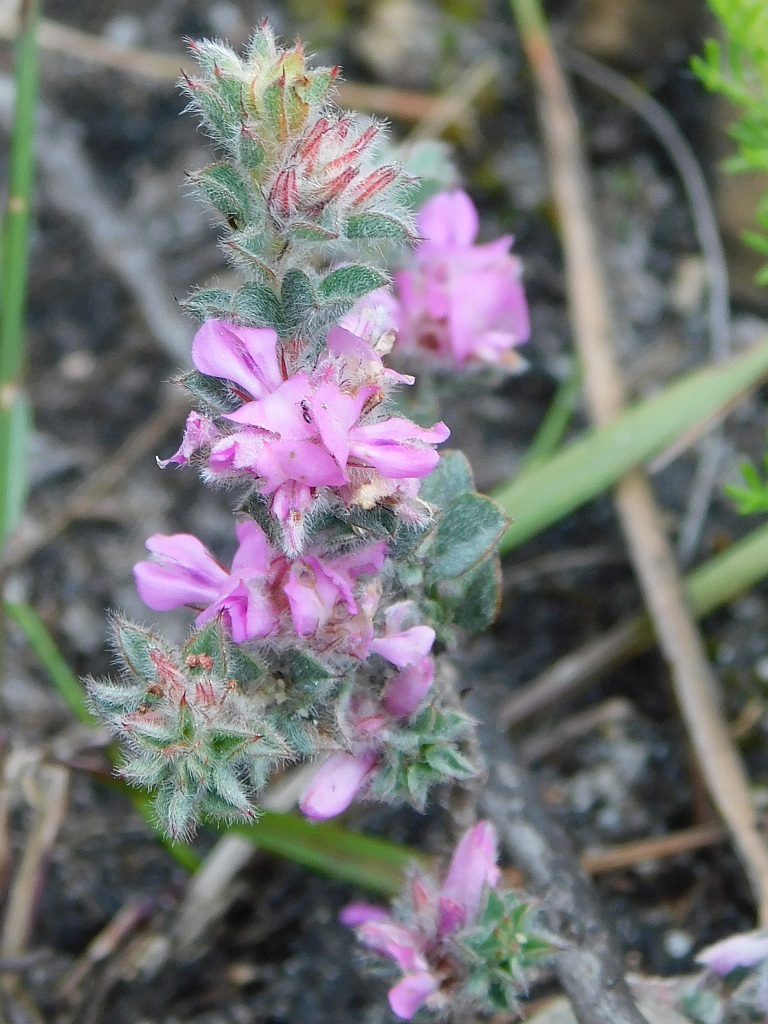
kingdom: Plantae
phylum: Tracheophyta
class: Magnoliopsida
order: Fabales
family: Fabaceae
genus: Indigofera
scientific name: Indigofera glomerata
